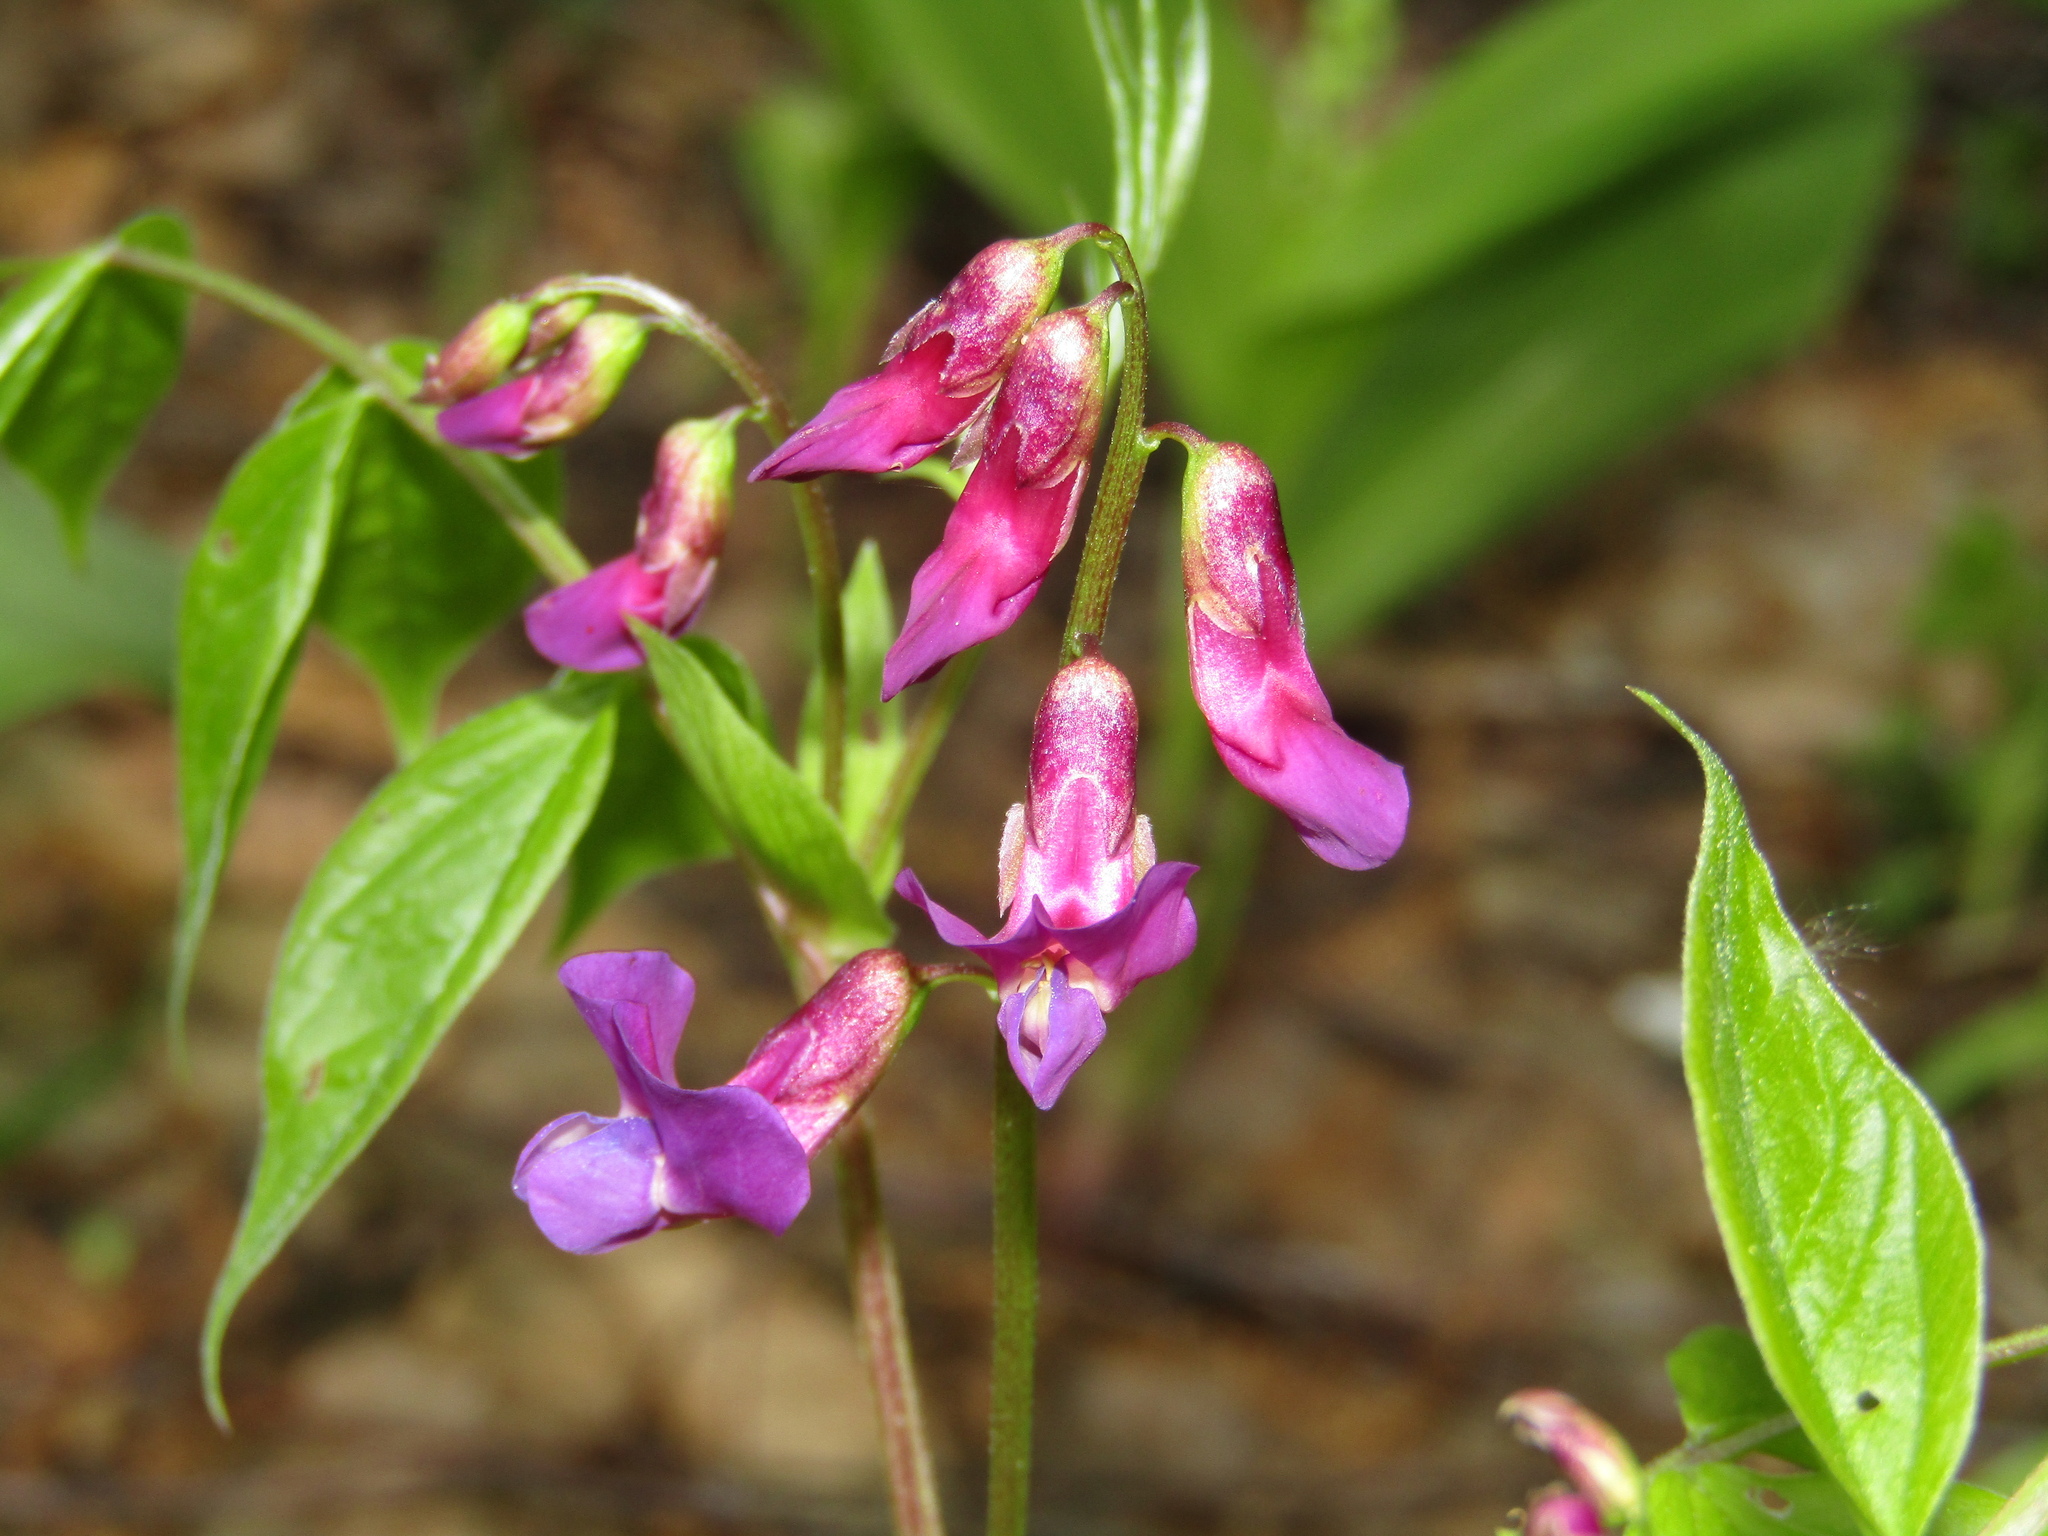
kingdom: Plantae
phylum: Tracheophyta
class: Magnoliopsida
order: Fabales
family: Fabaceae
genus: Lathyrus
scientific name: Lathyrus vernus
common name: Spring pea
